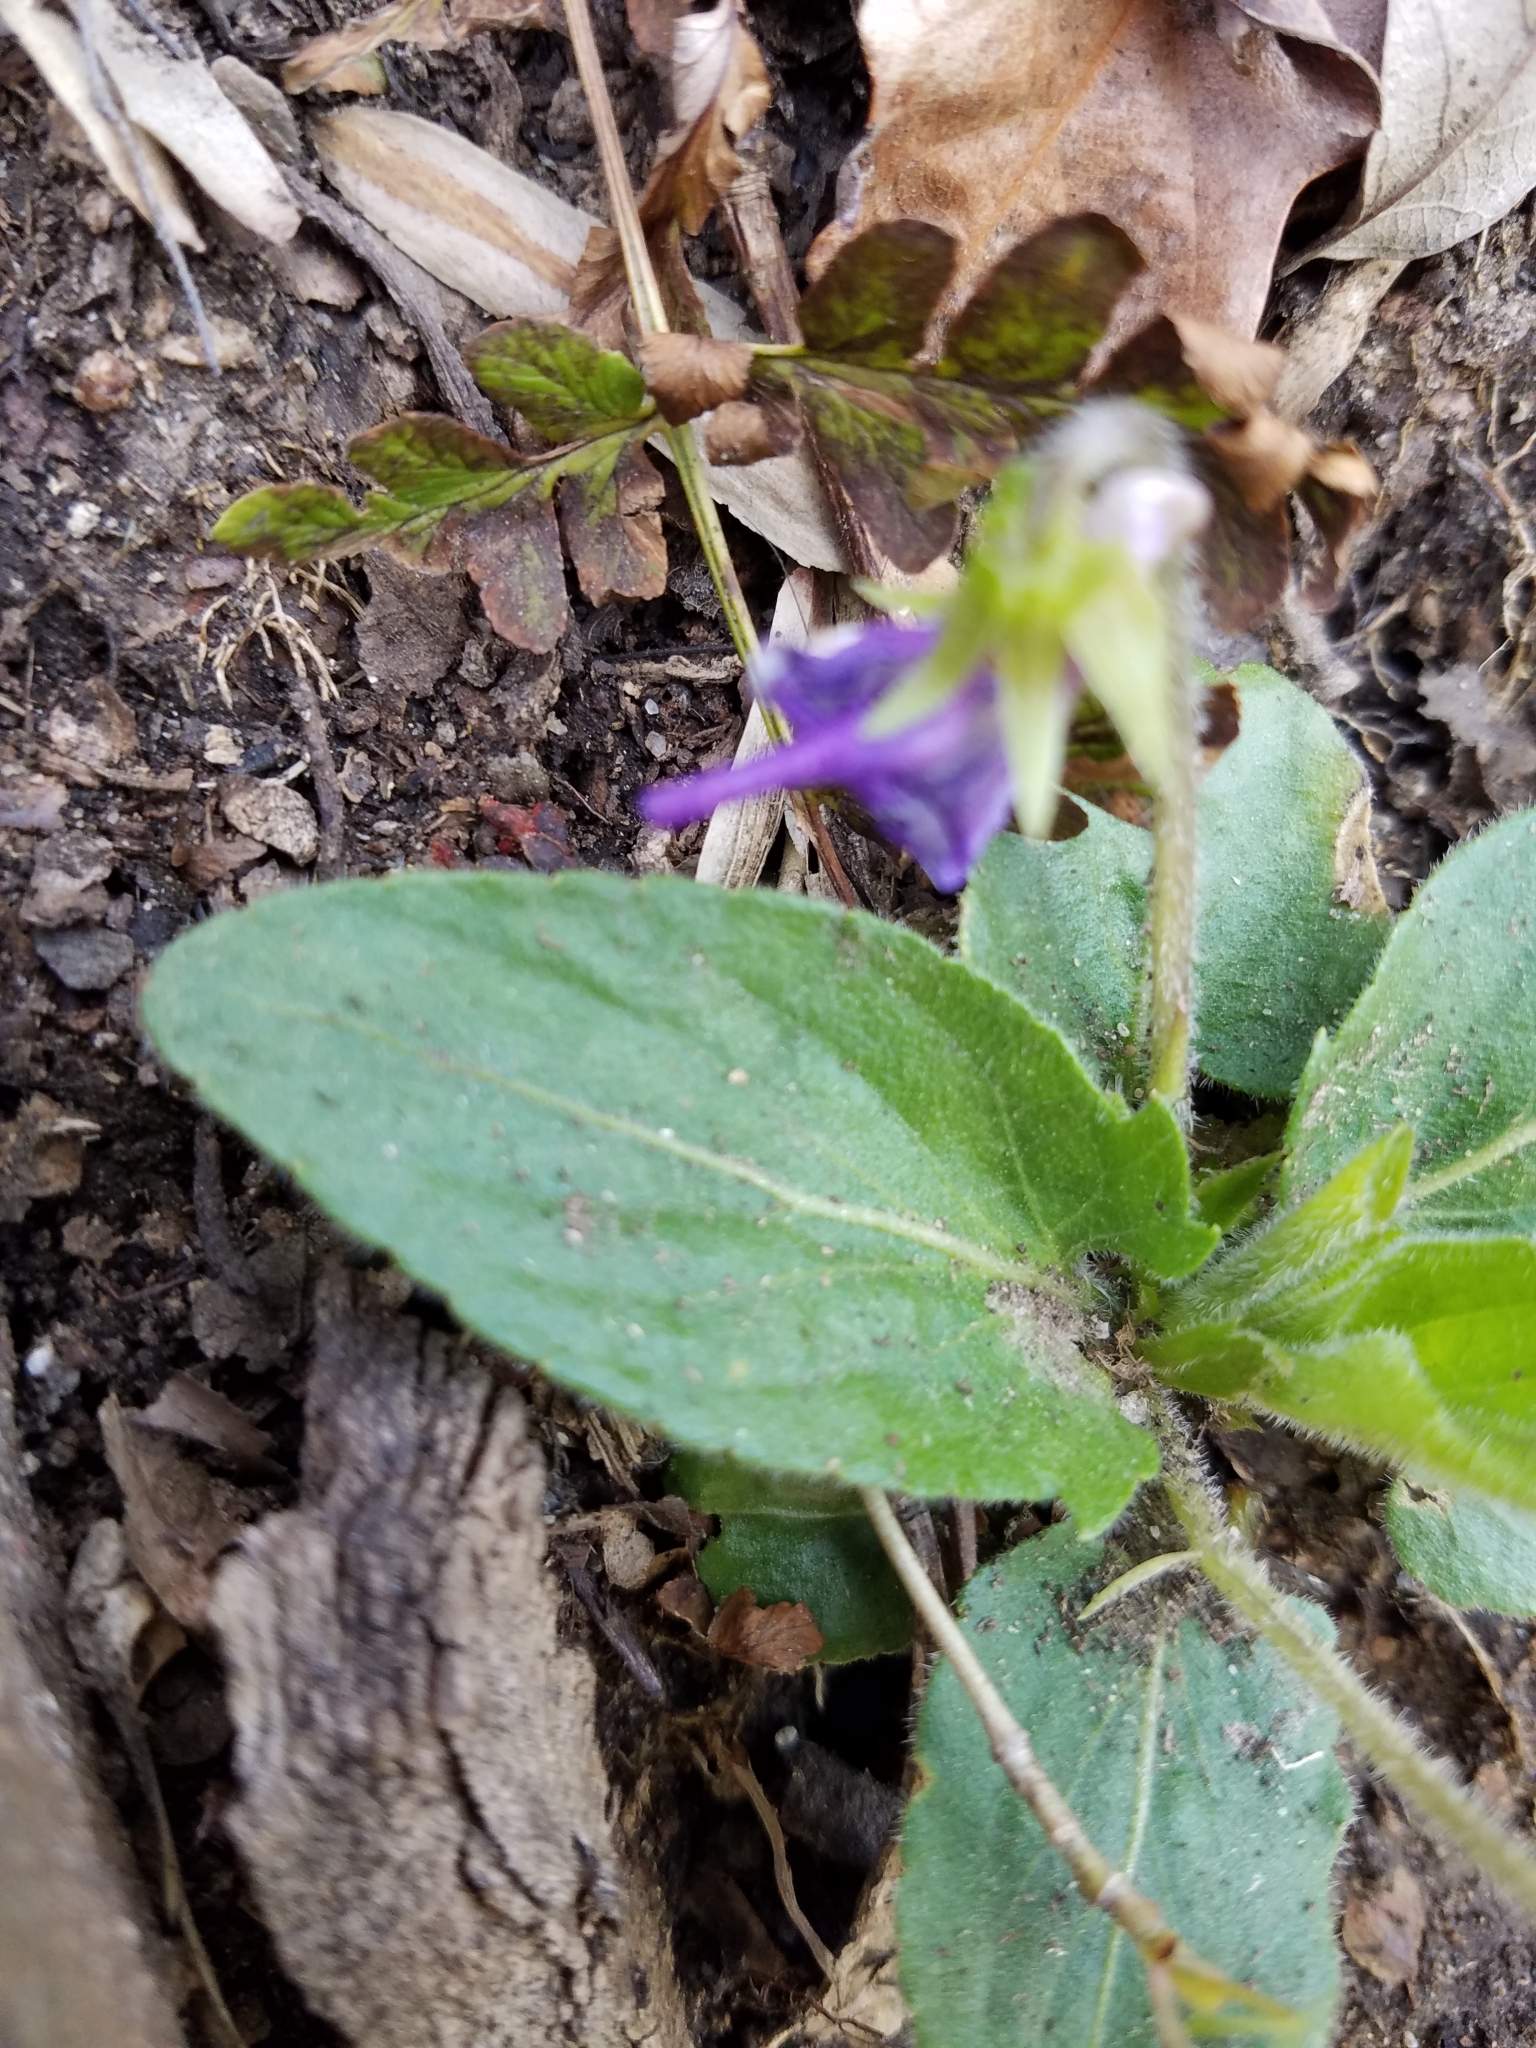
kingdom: Plantae
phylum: Tracheophyta
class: Magnoliopsida
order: Malpighiales
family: Violaceae
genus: Viola
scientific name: Viola sagittata
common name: Arrowhead violet
